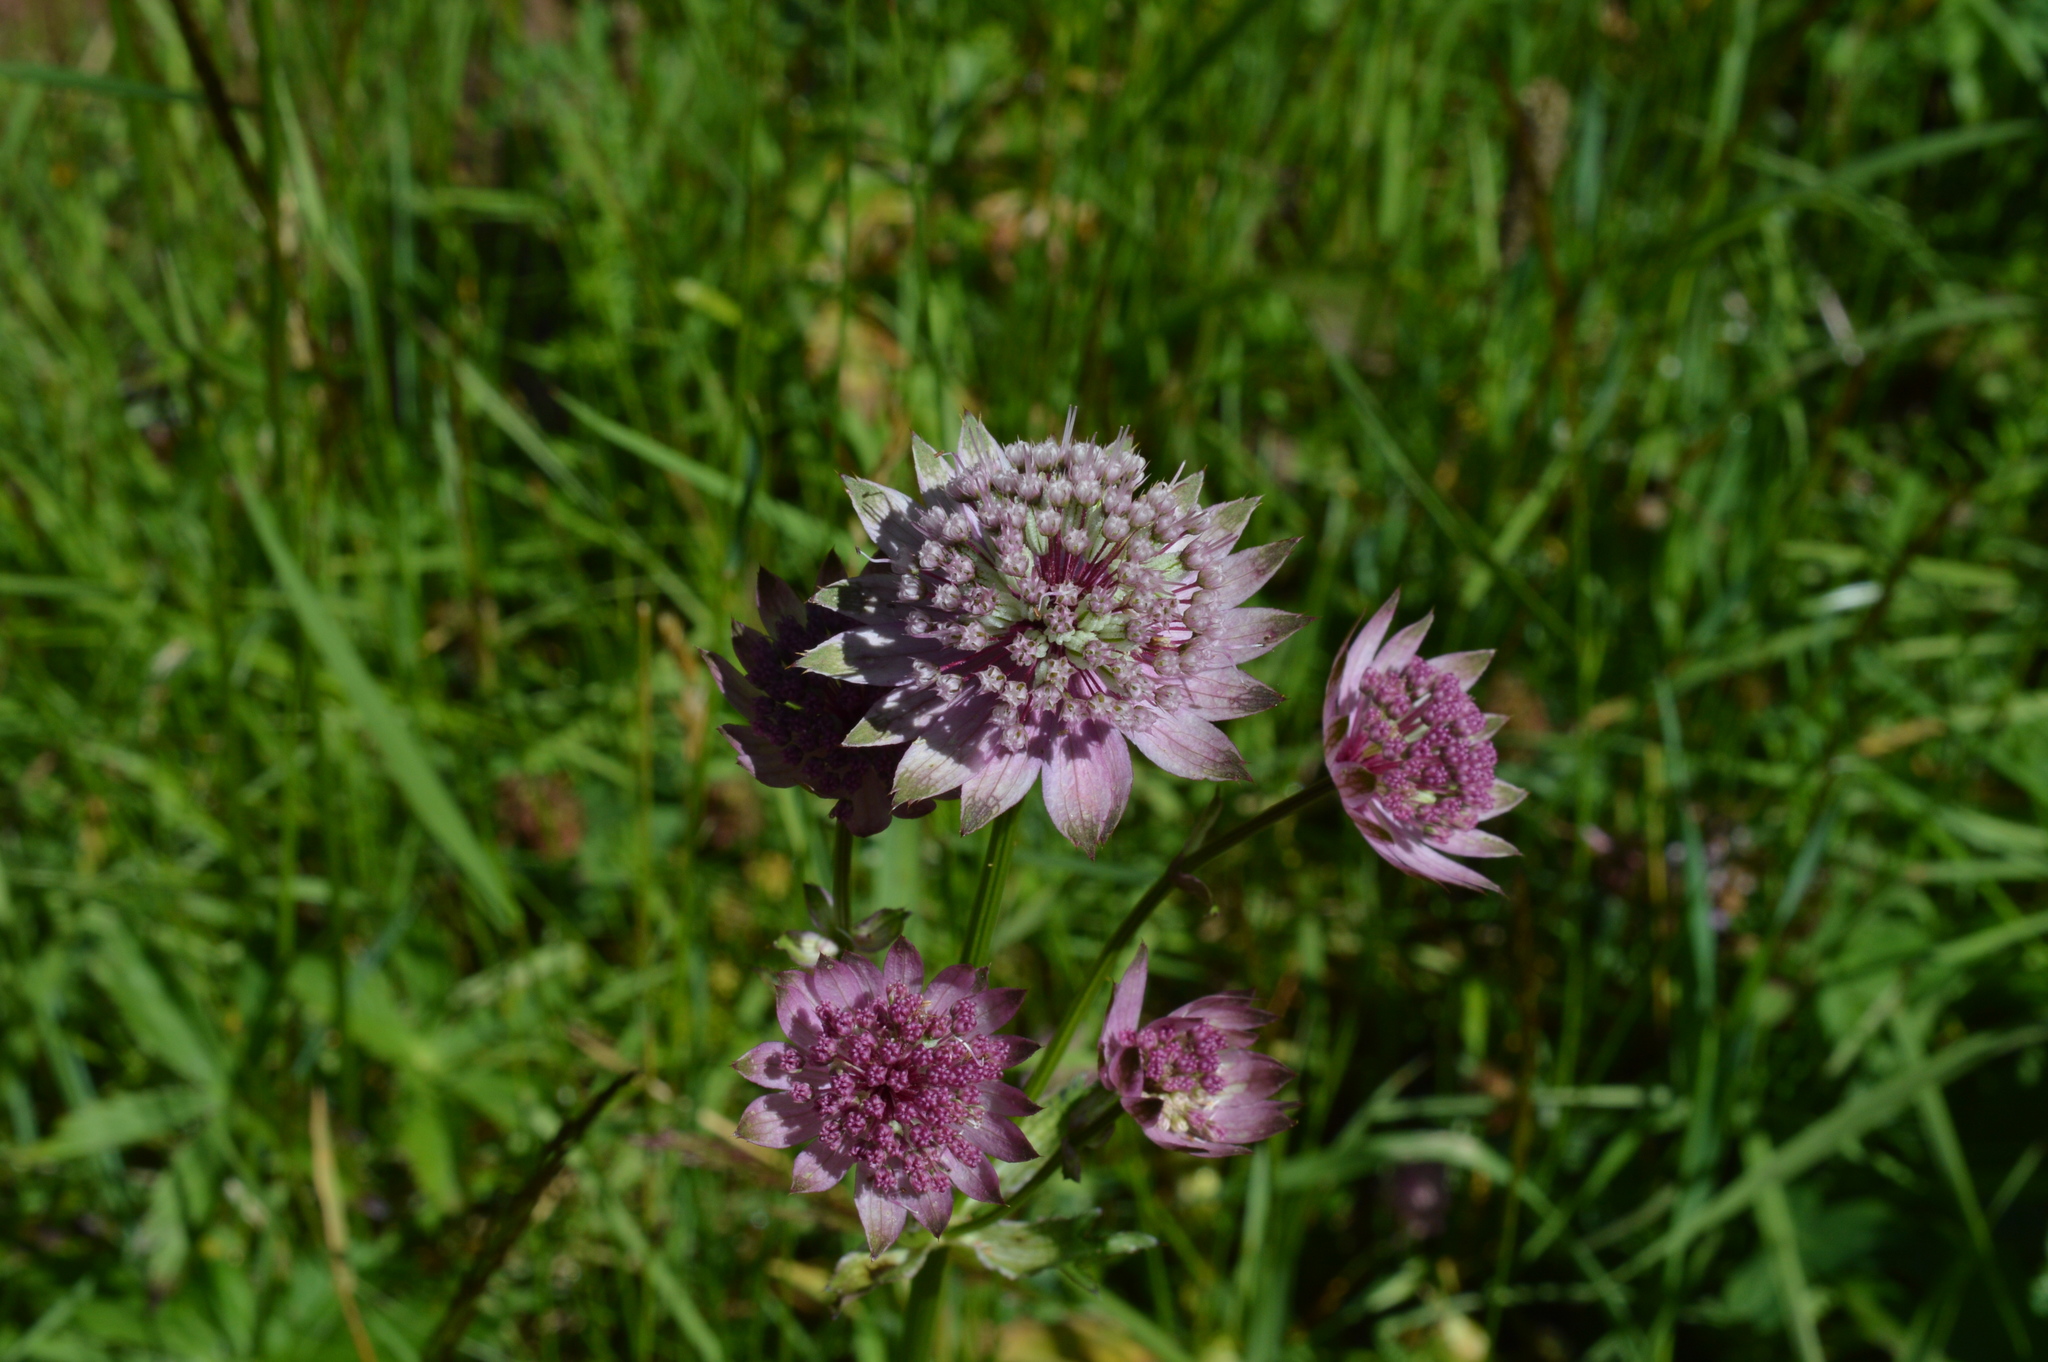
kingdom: Plantae
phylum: Tracheophyta
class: Magnoliopsida
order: Apiales
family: Apiaceae
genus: Astrantia
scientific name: Astrantia major
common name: Greater masterwort
